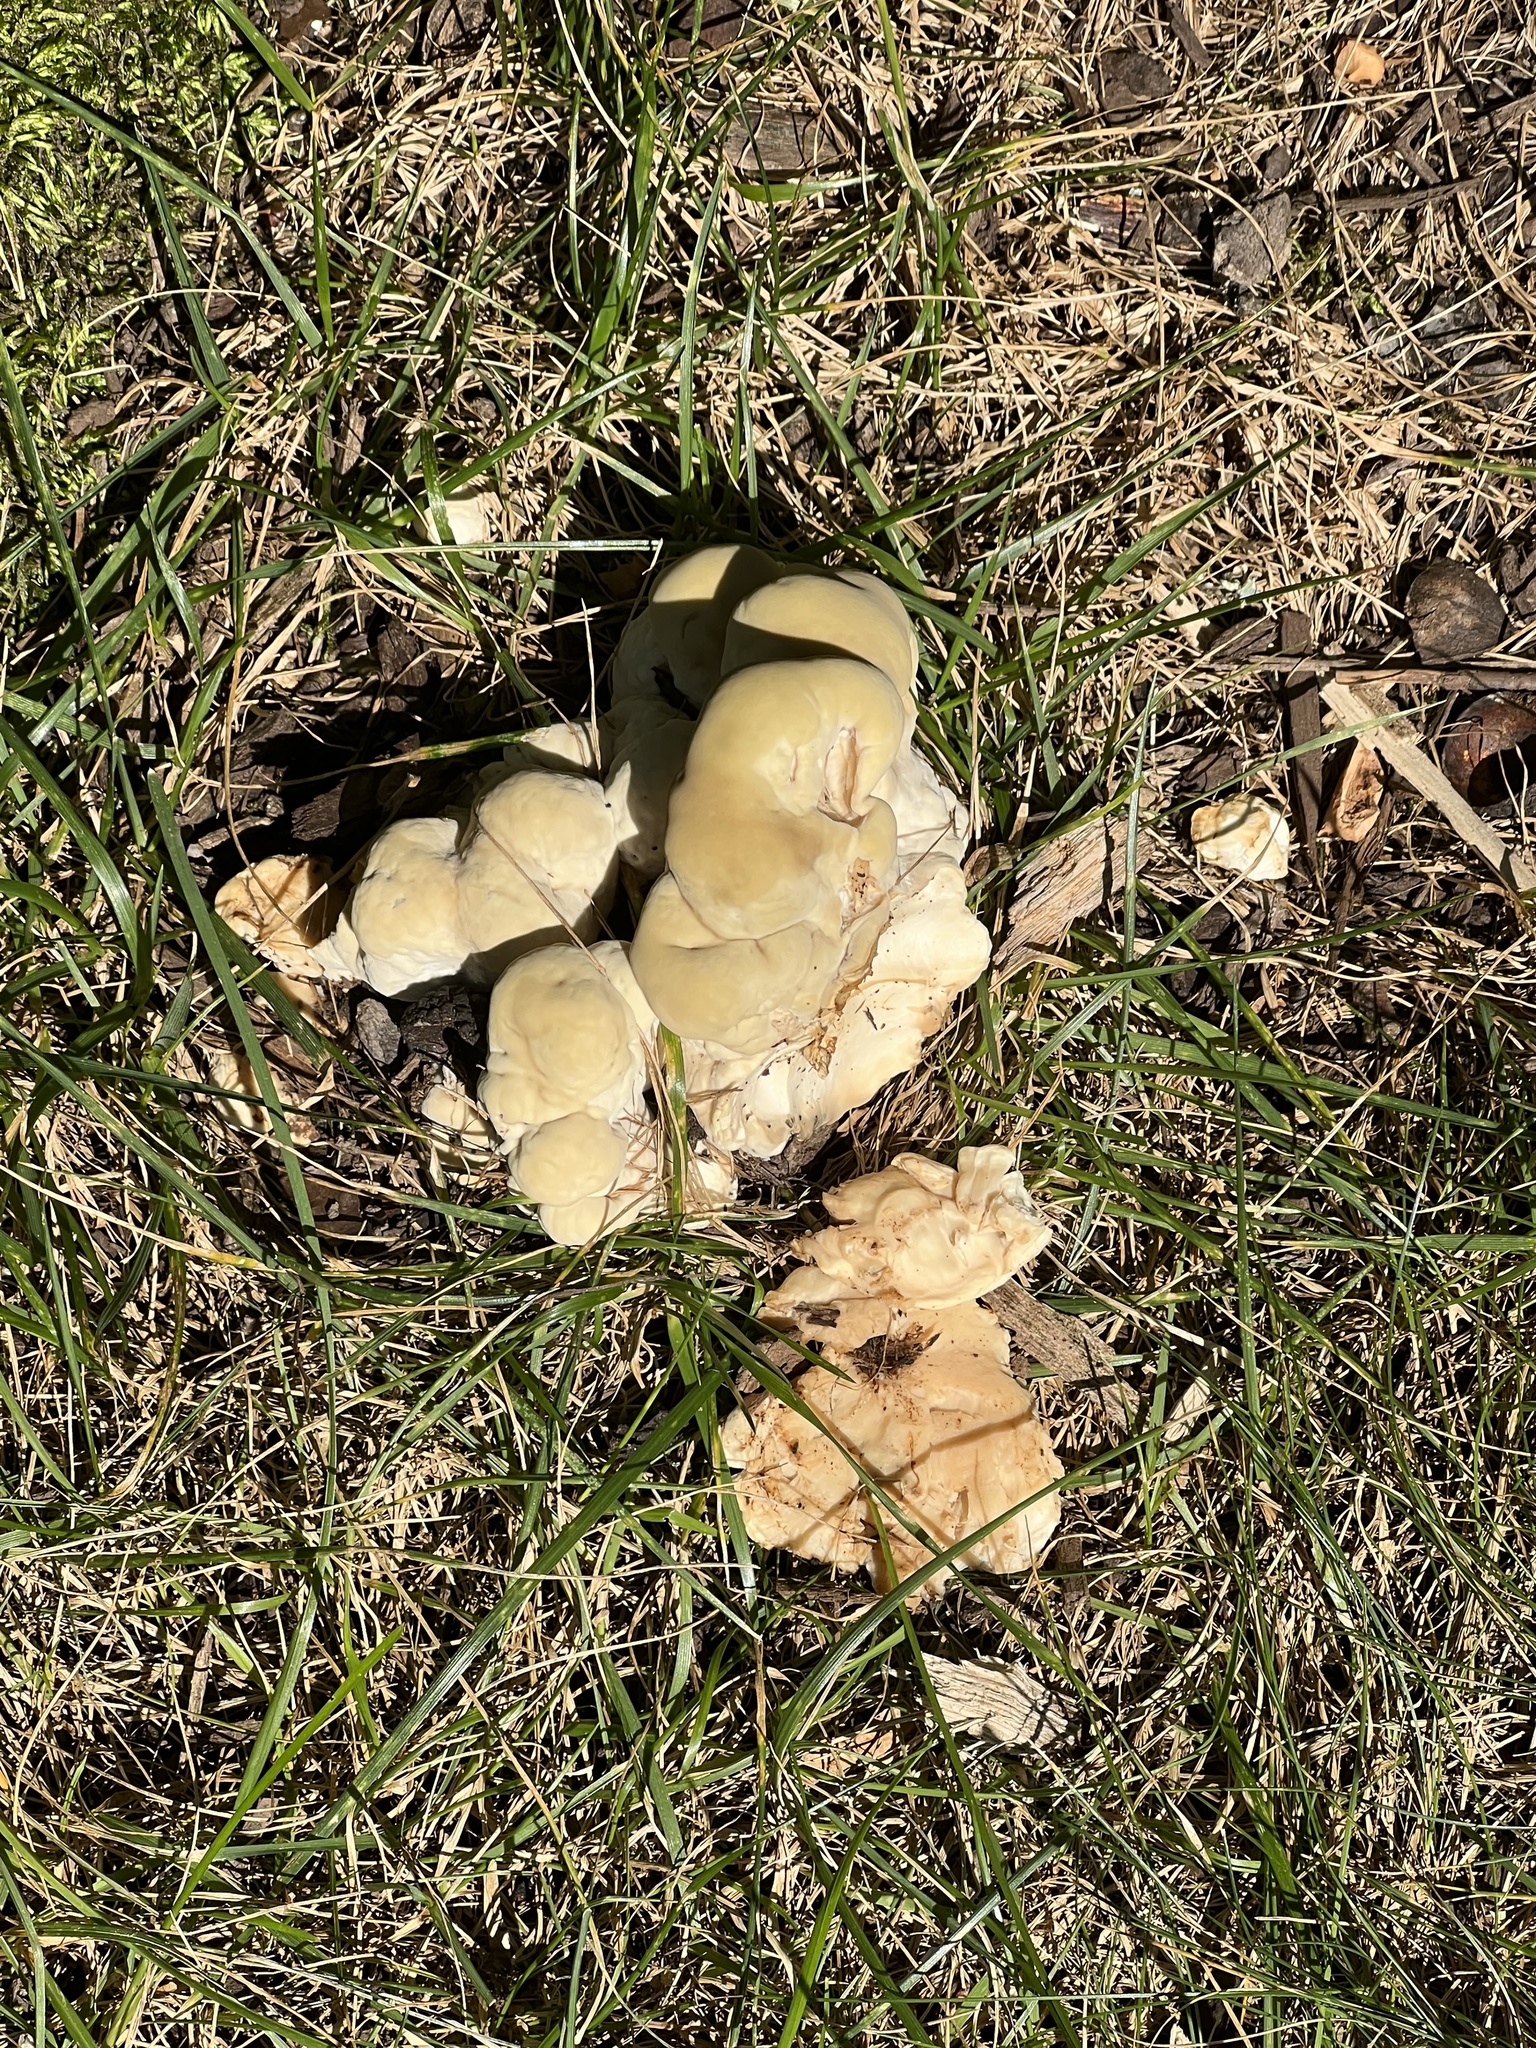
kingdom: Fungi
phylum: Basidiomycota
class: Agaricomycetes
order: Russulales
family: Bondarzewiaceae
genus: Bondarzewia
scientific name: Bondarzewia berkeleyi
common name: Berkeley's polypore
